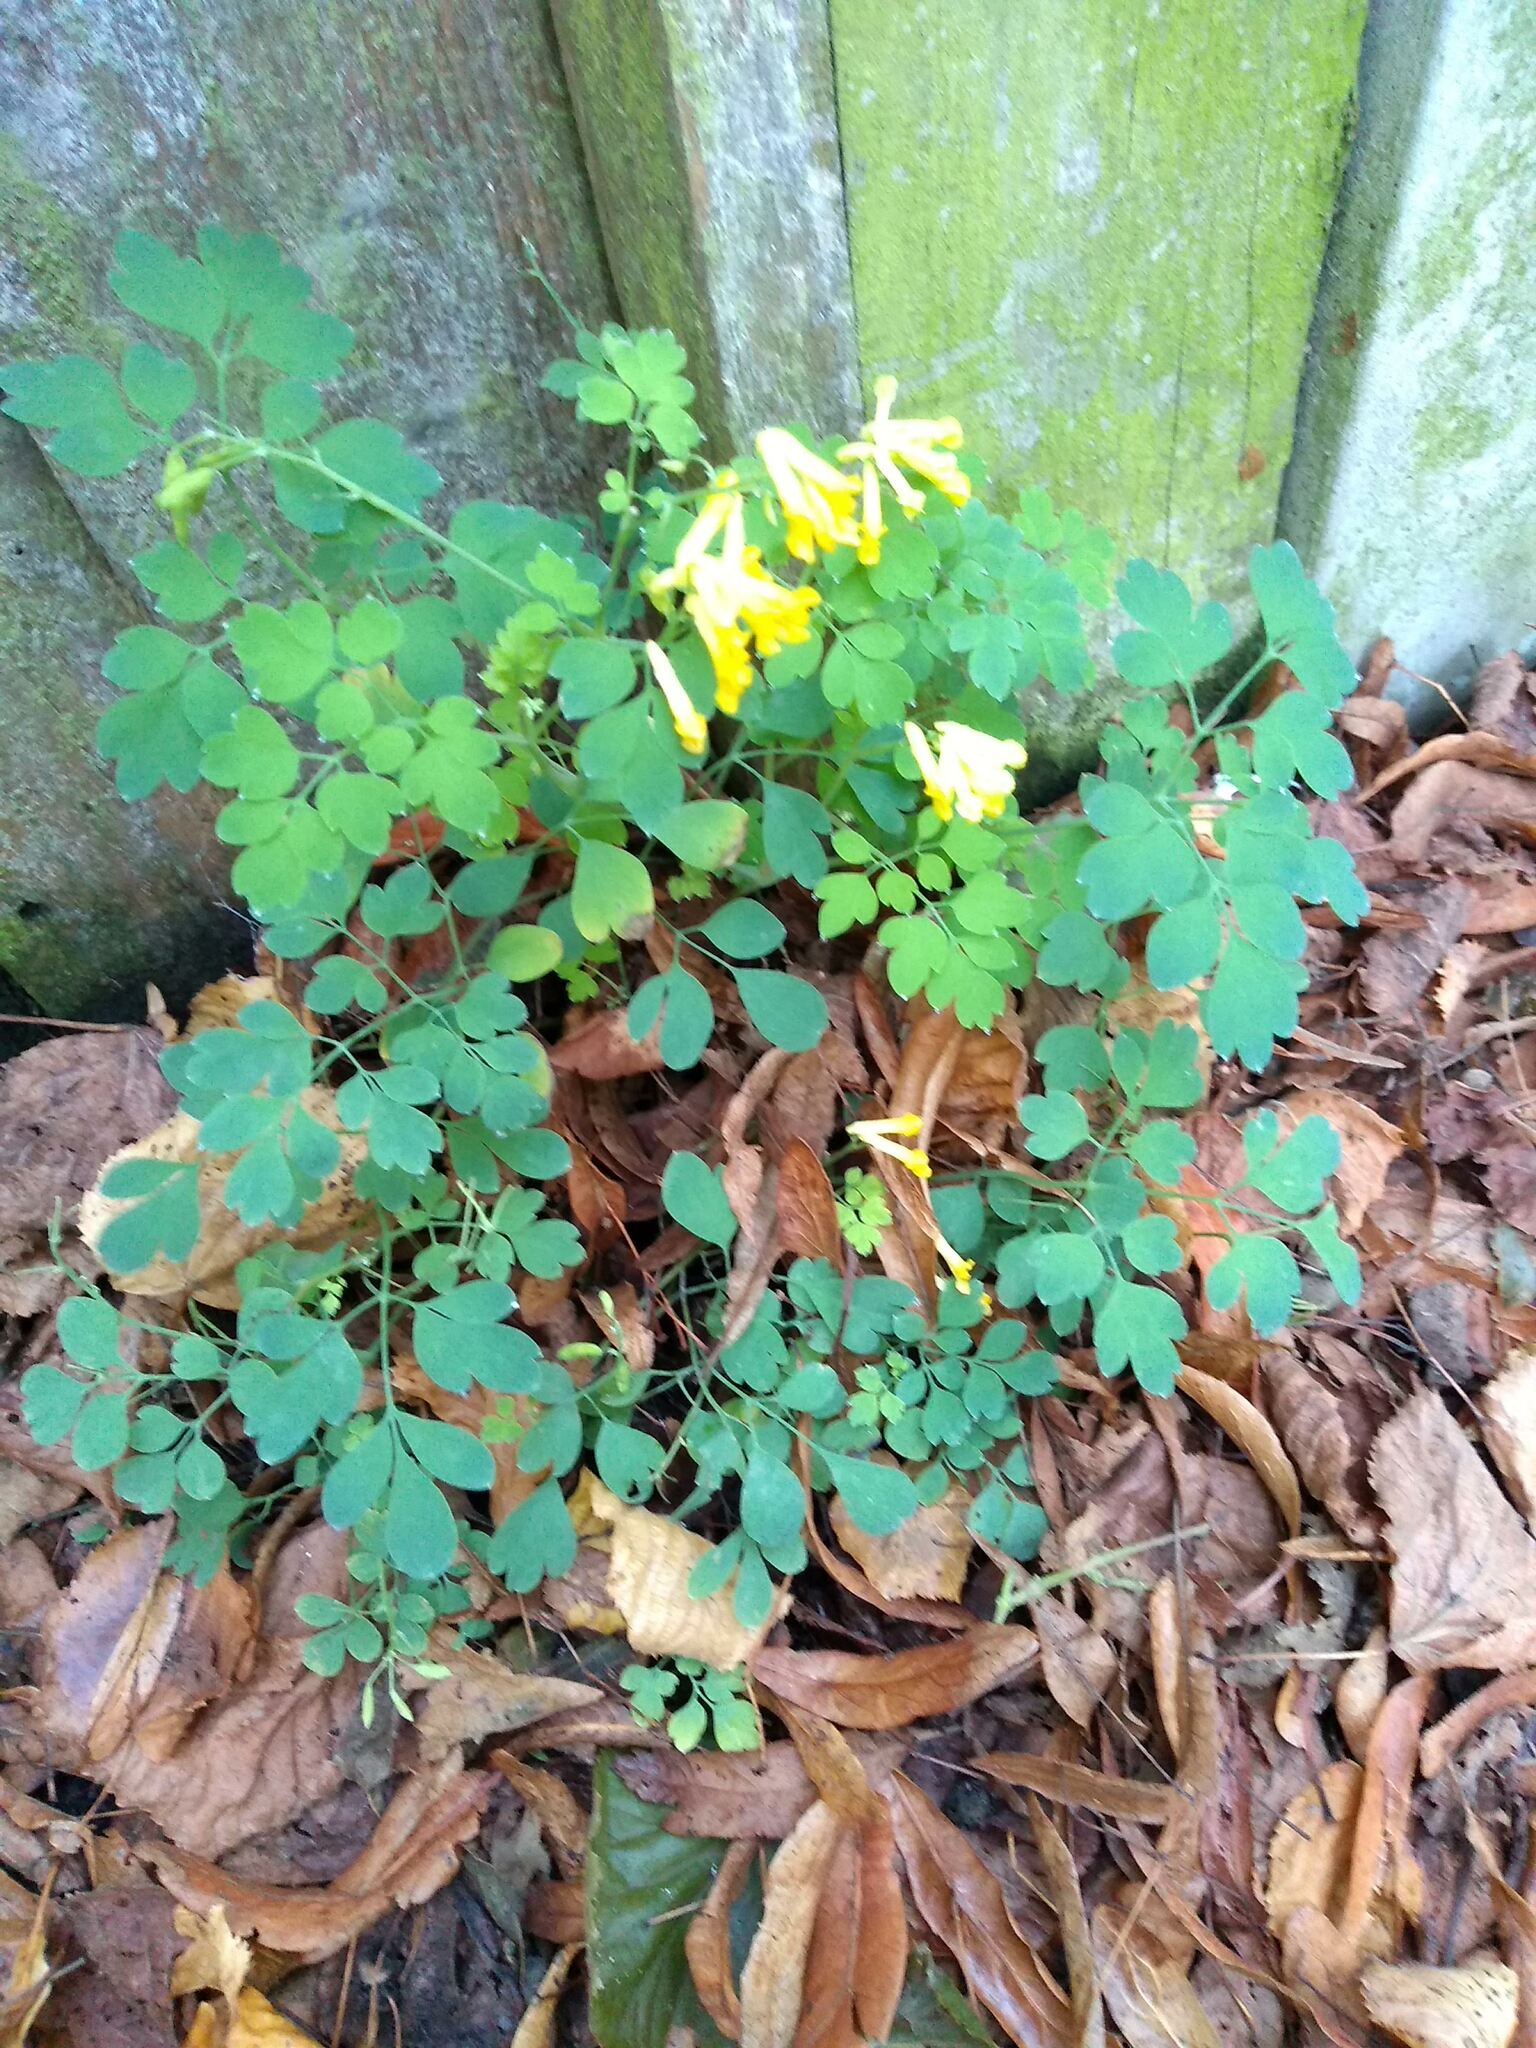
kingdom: Plantae
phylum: Tracheophyta
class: Magnoliopsida
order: Ranunculales
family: Papaveraceae
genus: Pseudofumaria
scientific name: Pseudofumaria lutea
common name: Yellow corydalis
